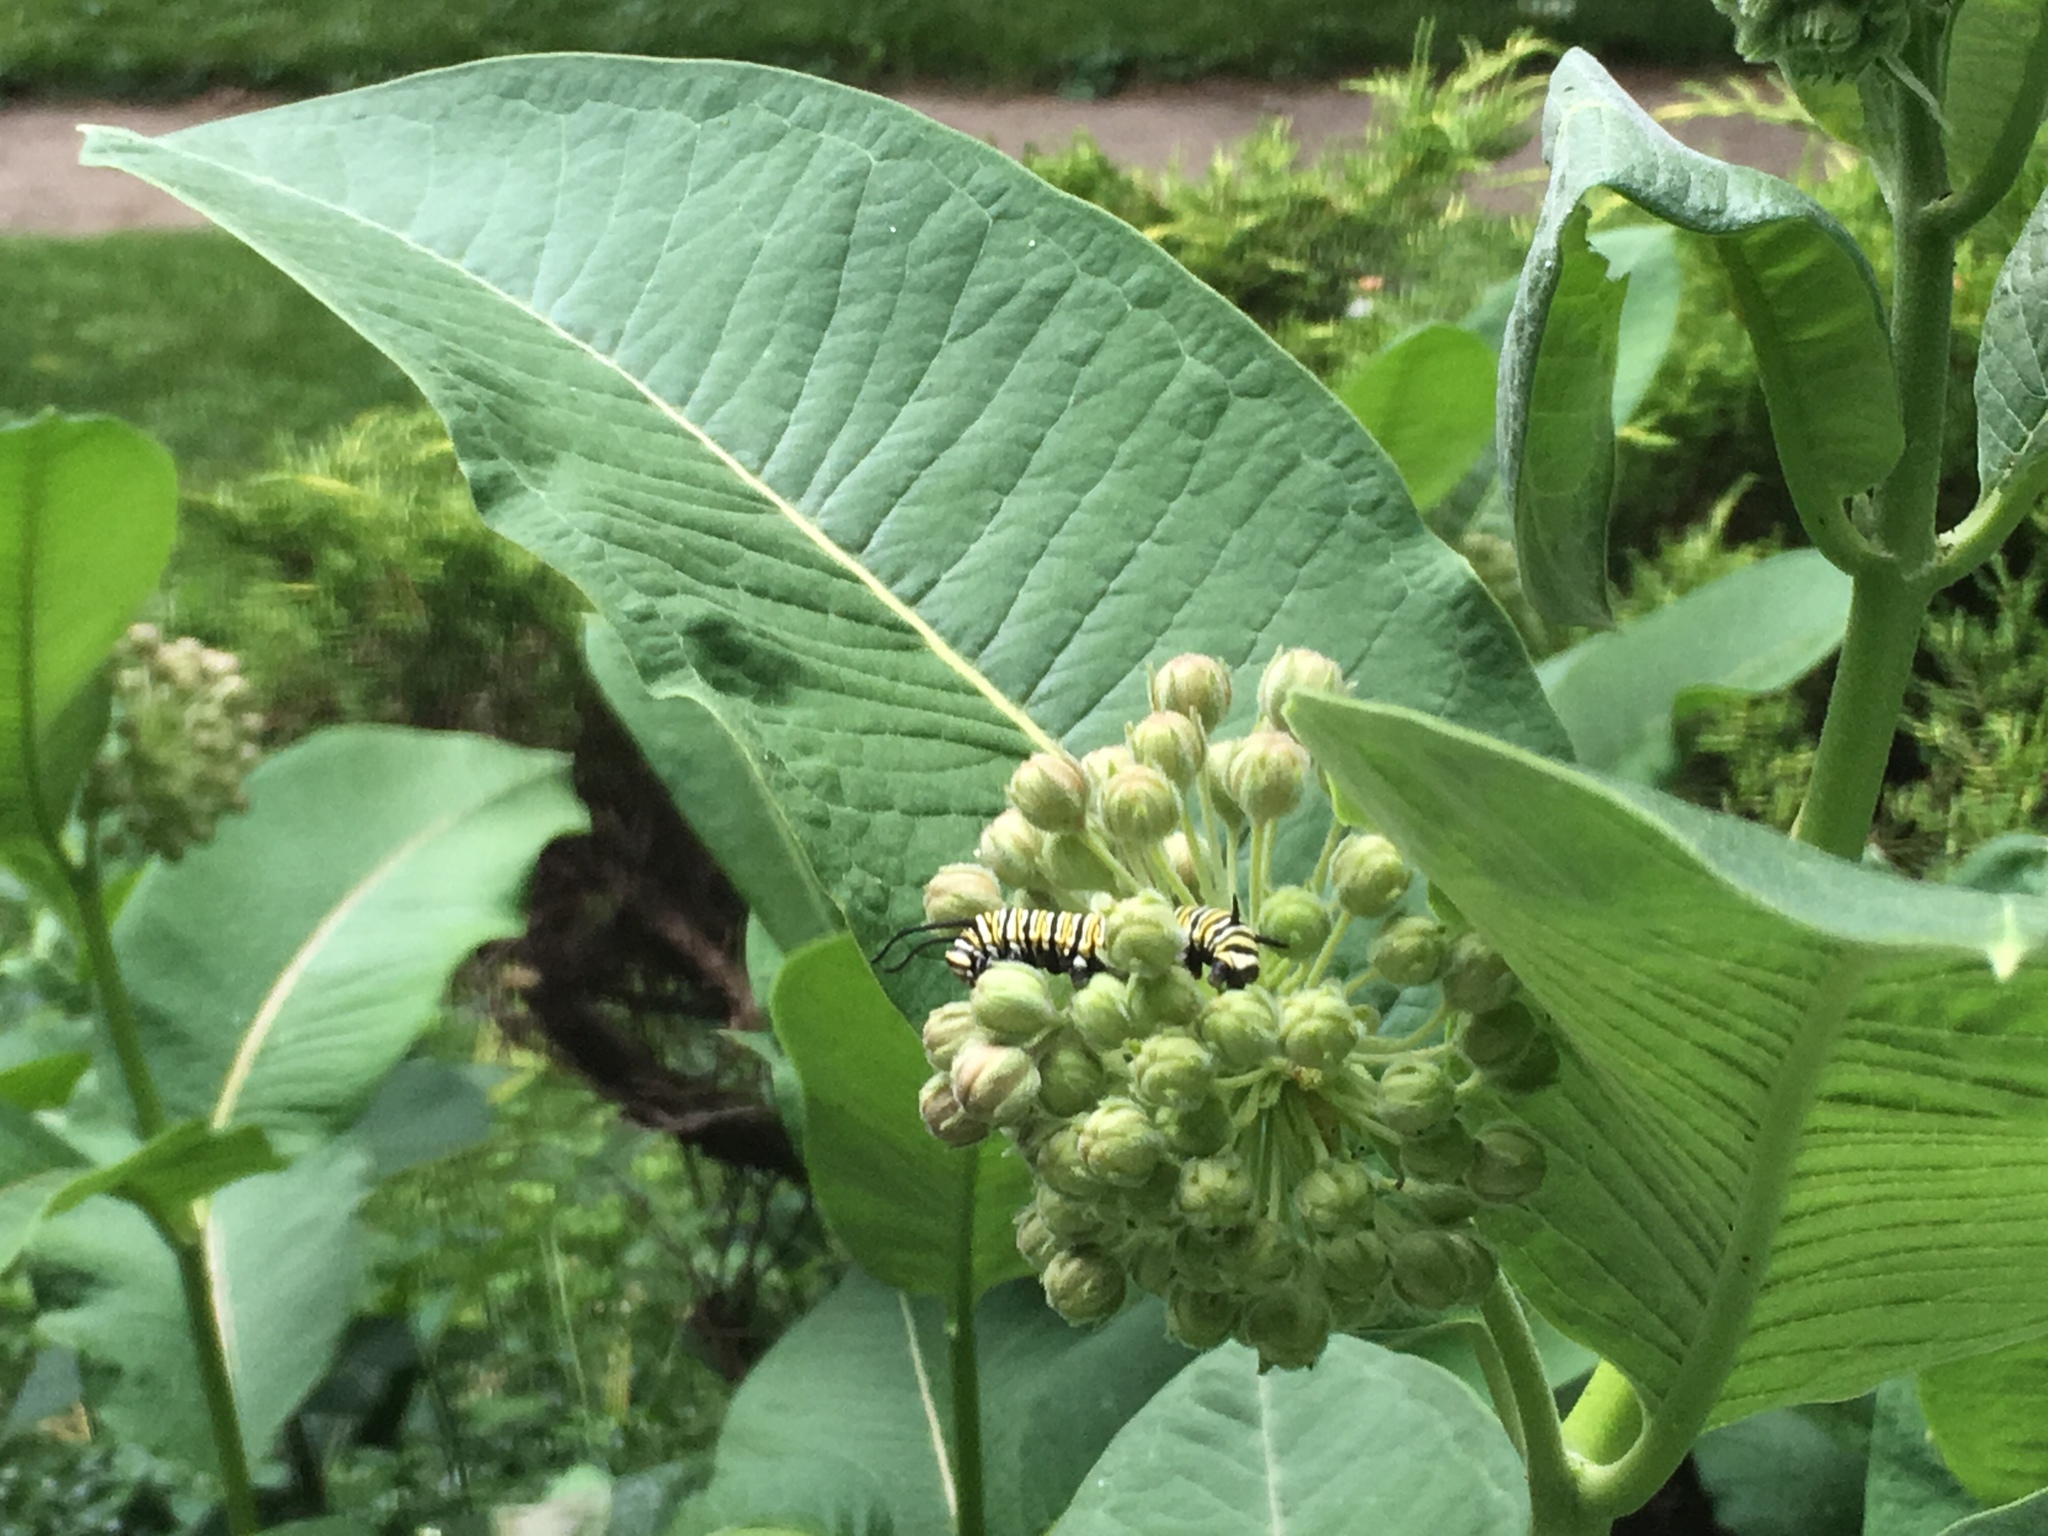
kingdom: Animalia
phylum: Arthropoda
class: Insecta
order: Lepidoptera
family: Nymphalidae
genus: Danaus
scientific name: Danaus plexippus
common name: Monarch
